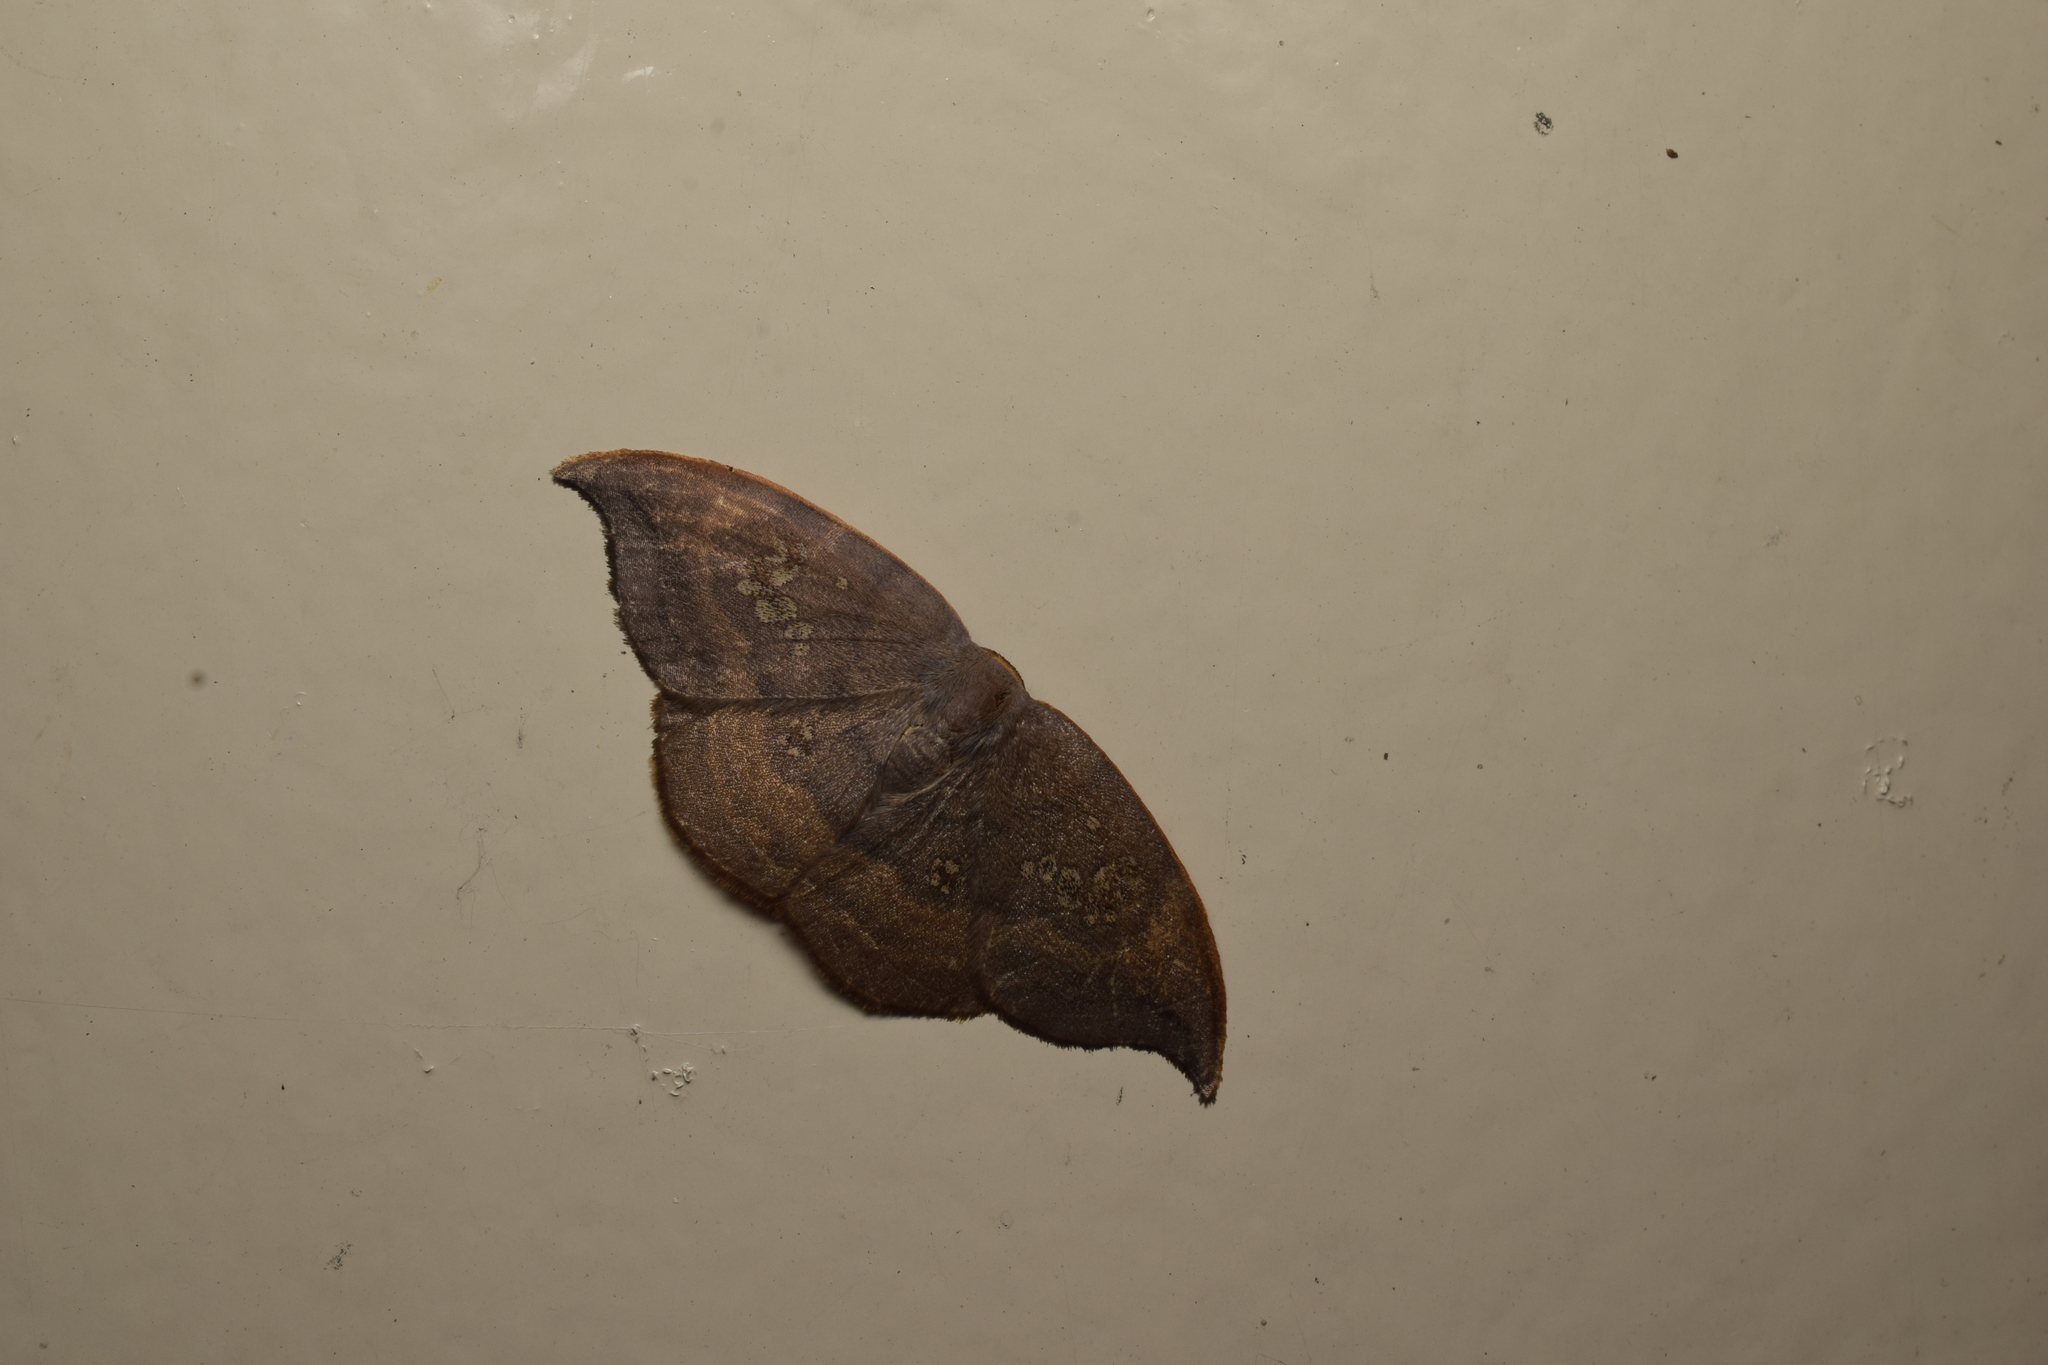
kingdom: Animalia
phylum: Arthropoda
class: Insecta
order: Lepidoptera
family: Drepanidae
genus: Agnidra
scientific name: Agnidra scabiosa
